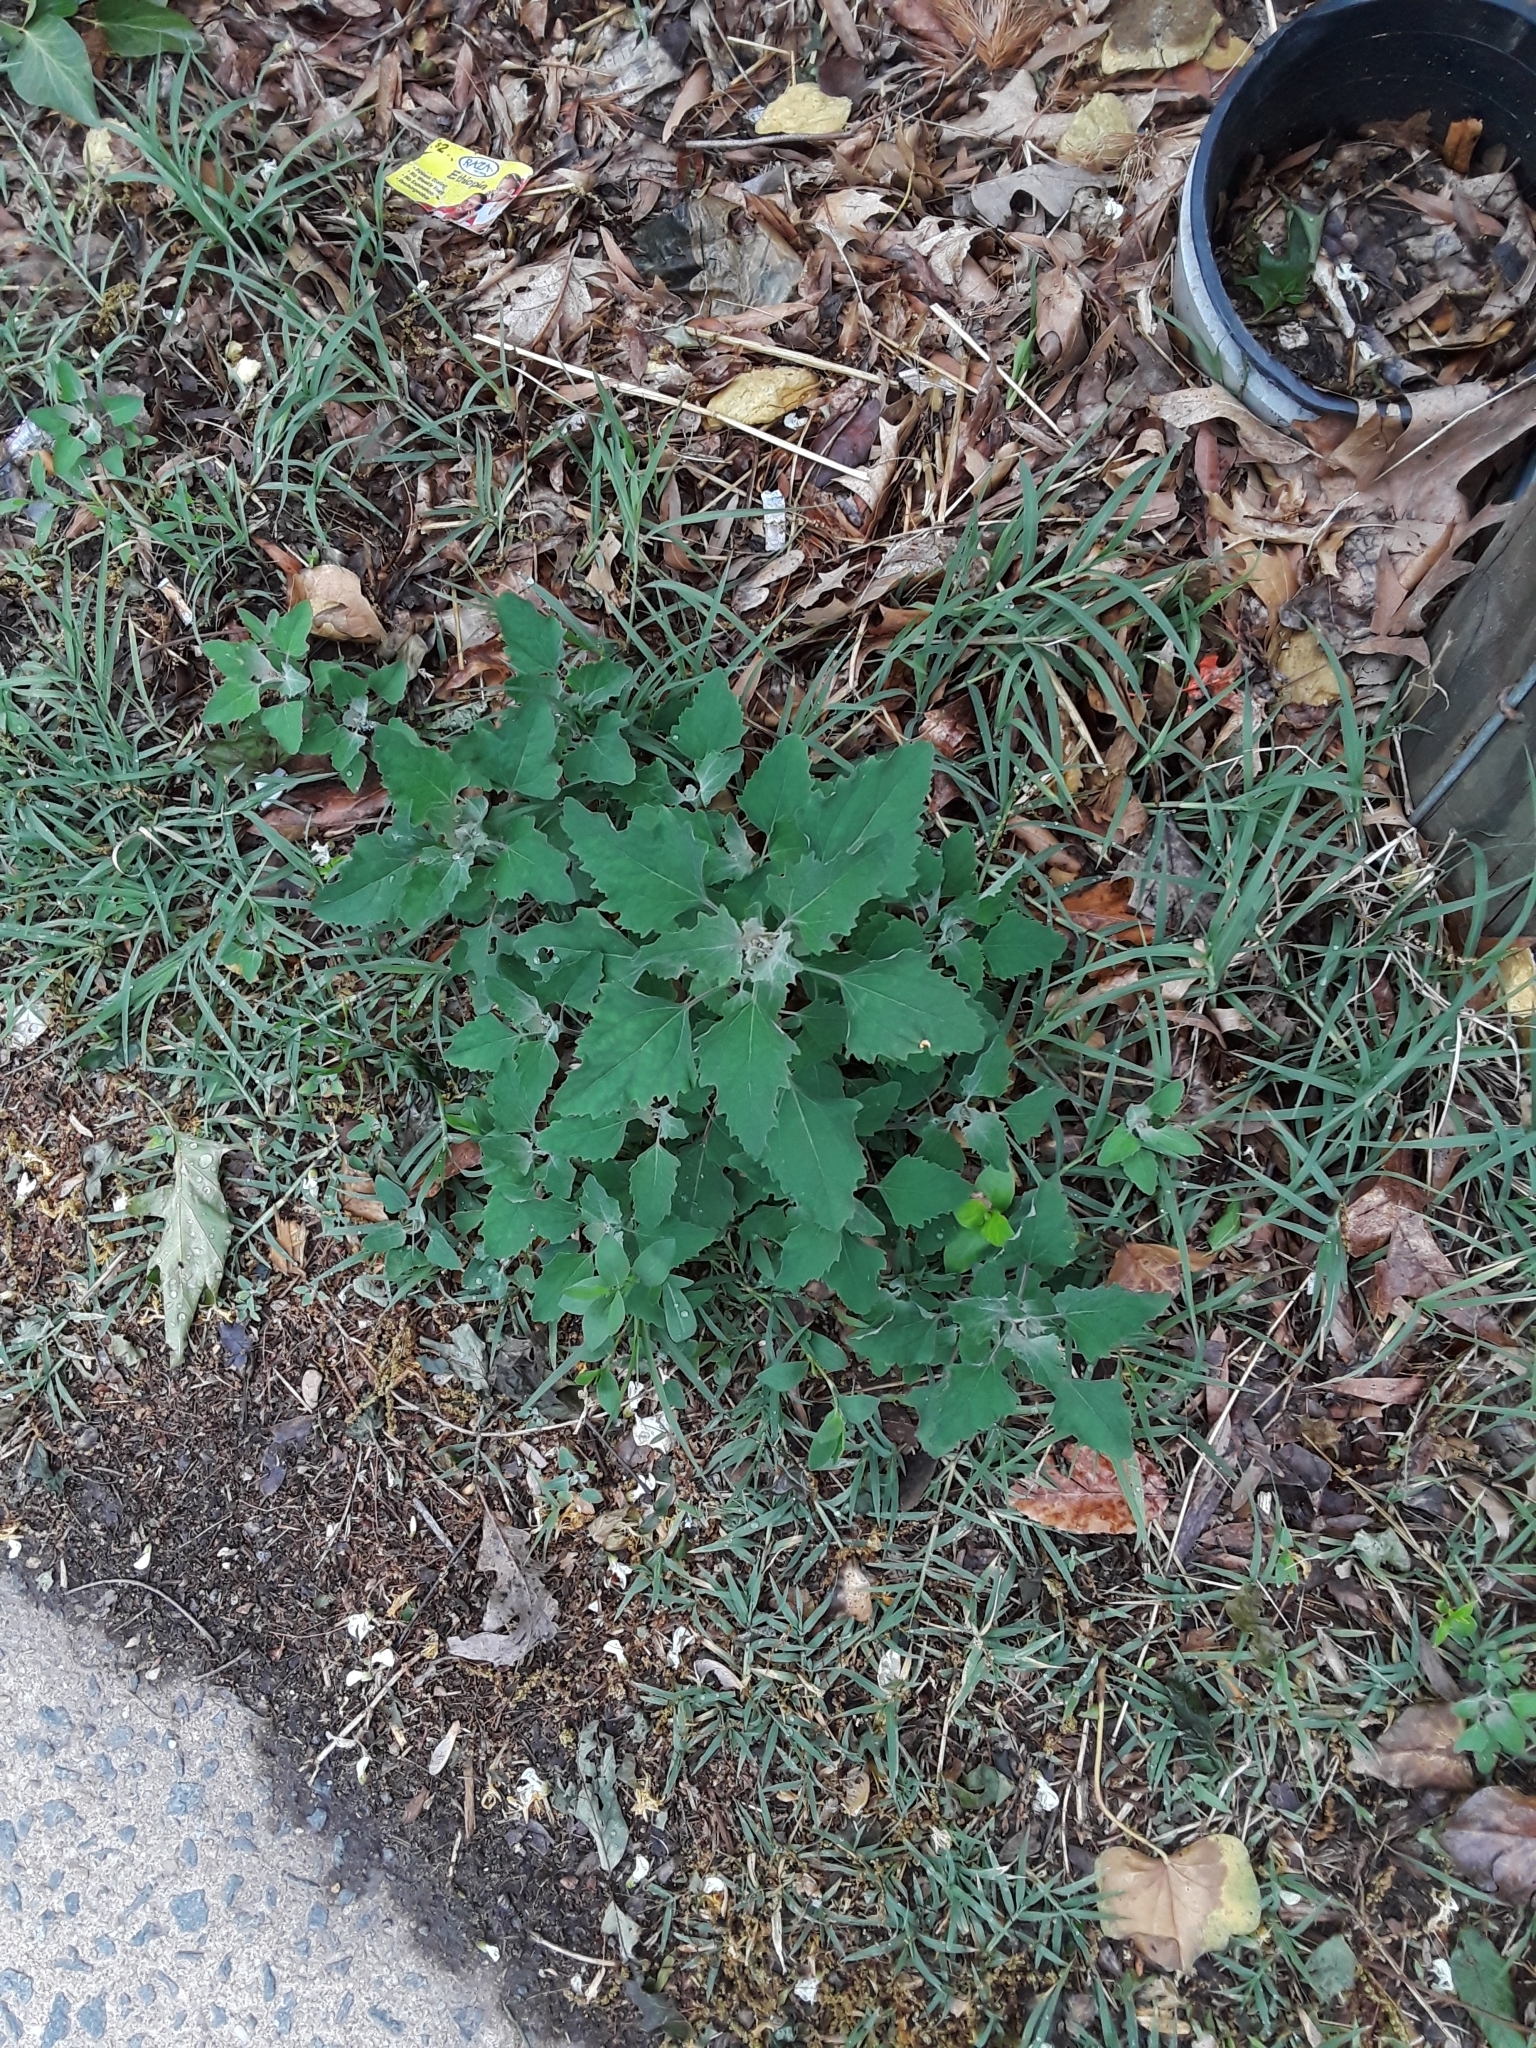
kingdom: Plantae
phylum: Tracheophyta
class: Magnoliopsida
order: Caryophyllales
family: Amaranthaceae
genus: Chenopodium
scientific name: Chenopodium album
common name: Fat-hen
